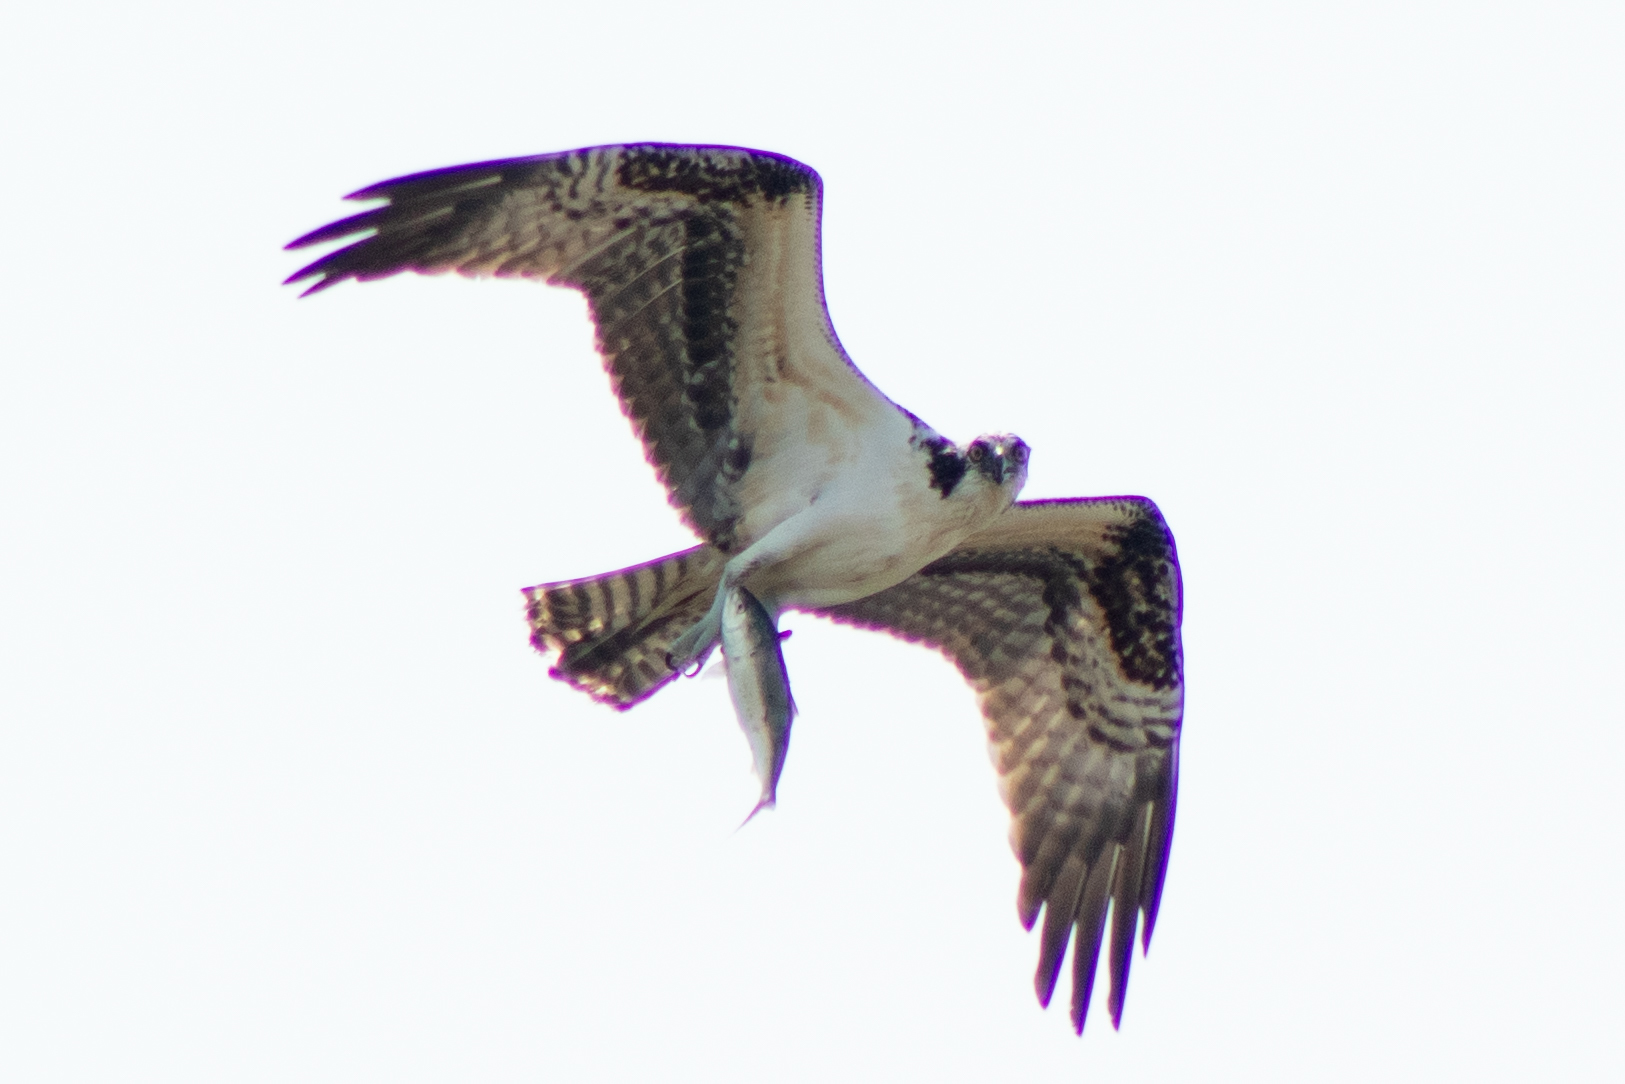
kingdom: Animalia
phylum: Chordata
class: Aves
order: Accipitriformes
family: Pandionidae
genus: Pandion
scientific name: Pandion haliaetus
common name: Osprey
